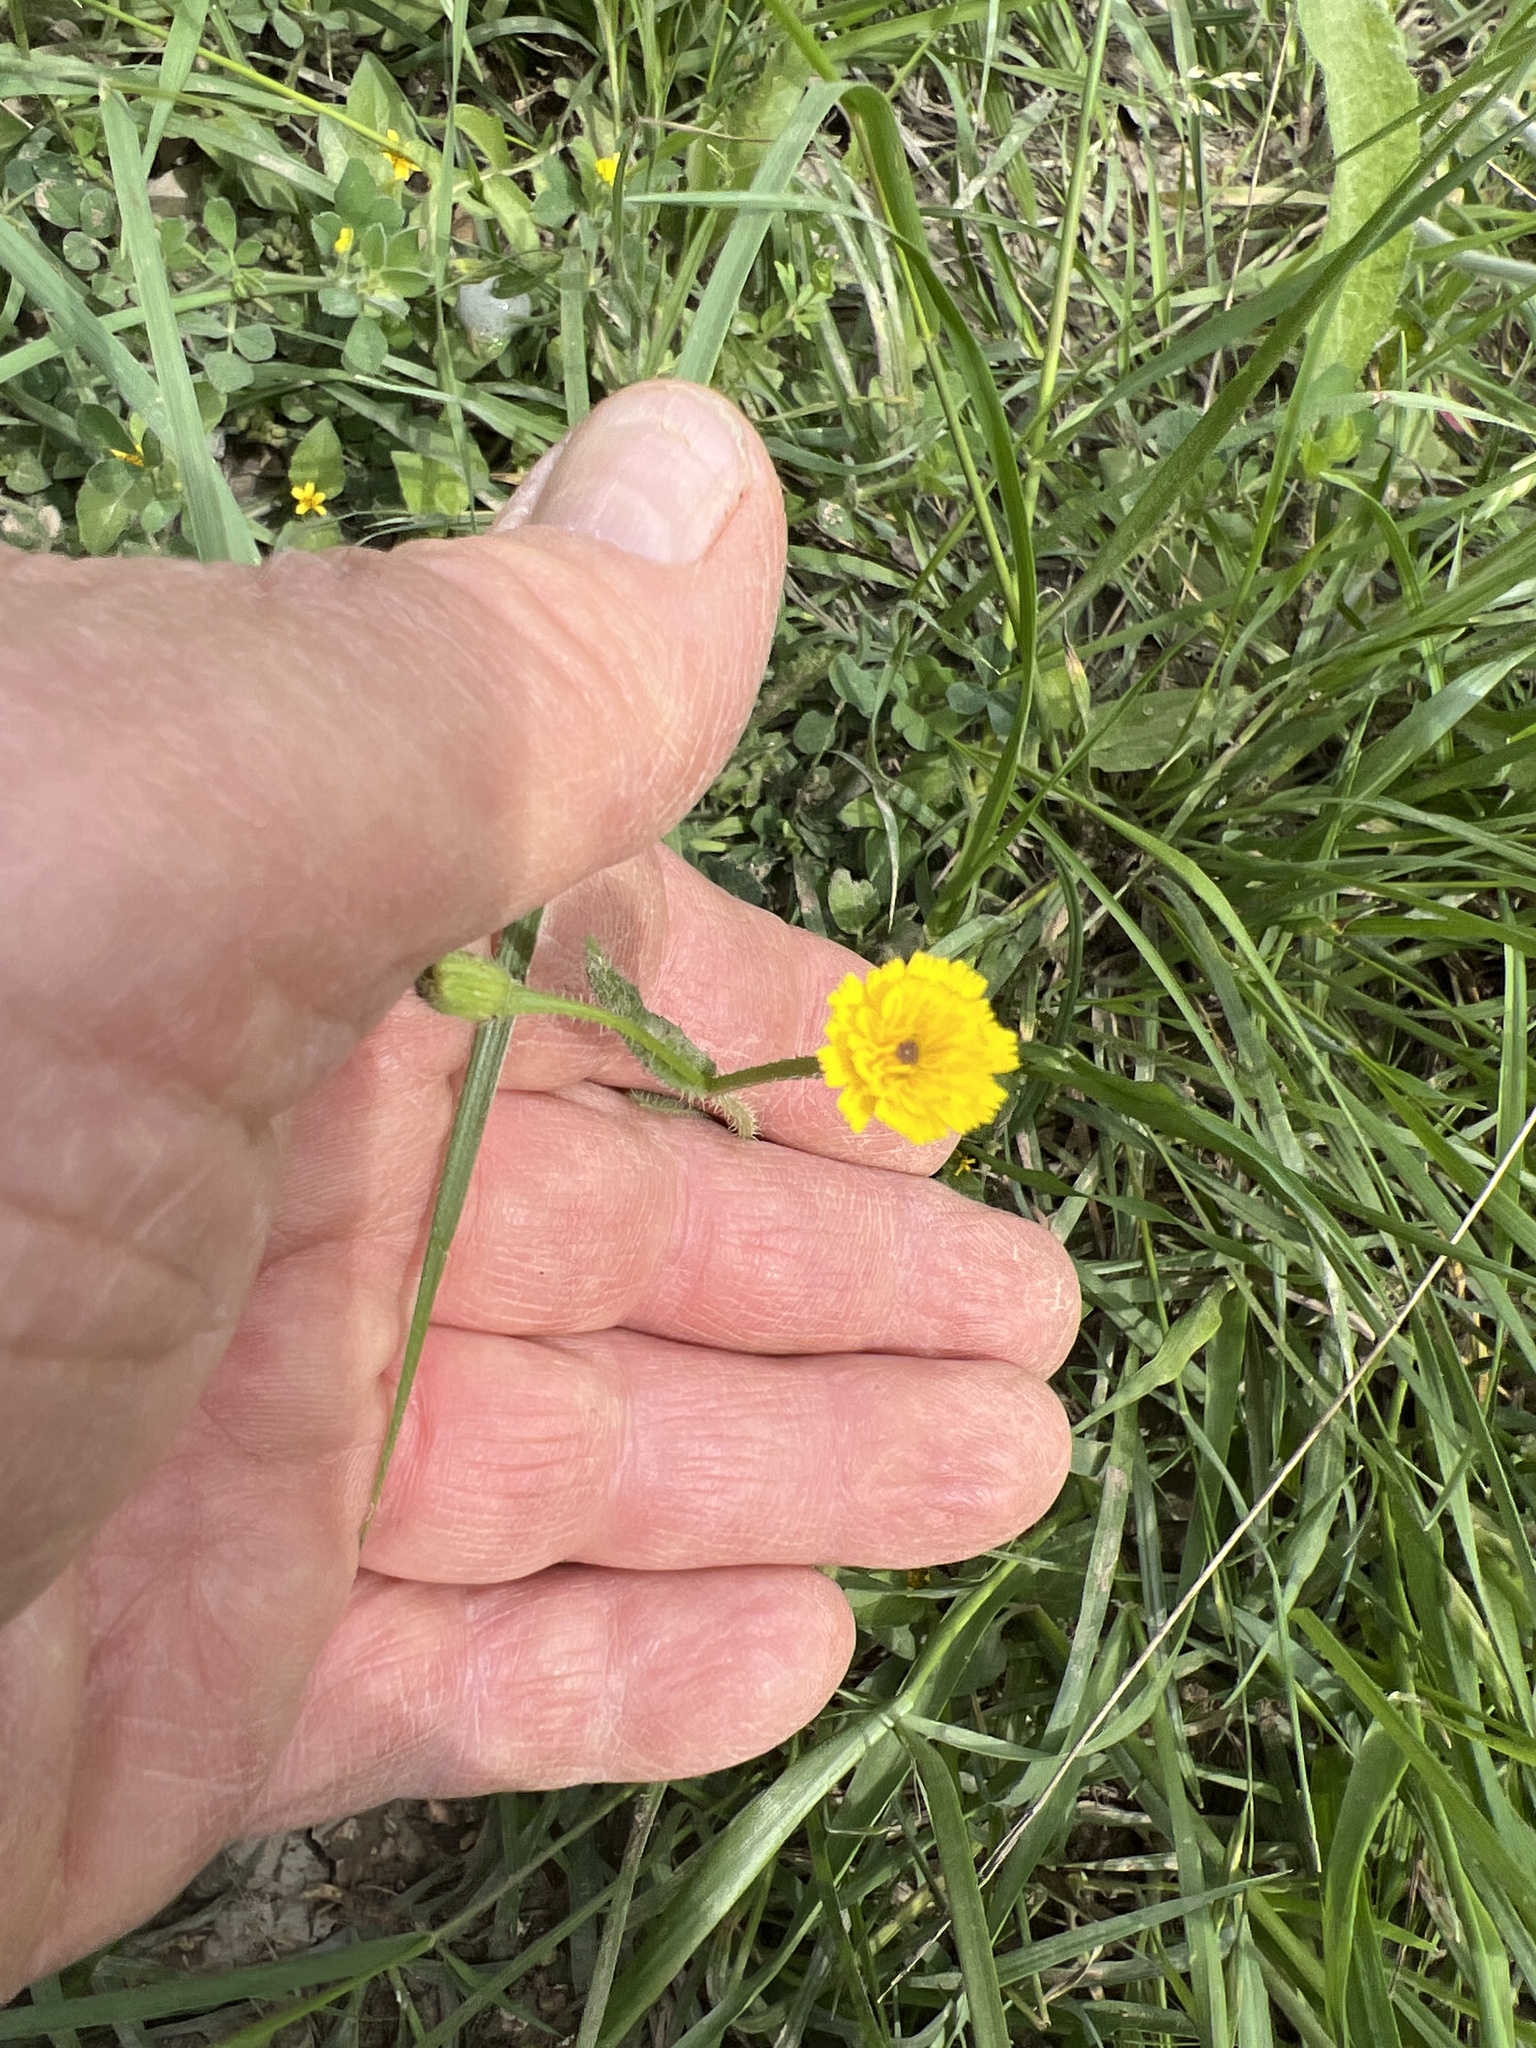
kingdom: Plantae
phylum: Tracheophyta
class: Magnoliopsida
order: Asterales
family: Asteraceae
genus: Hedypnois
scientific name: Hedypnois rhagadioloides
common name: Cretan weed
